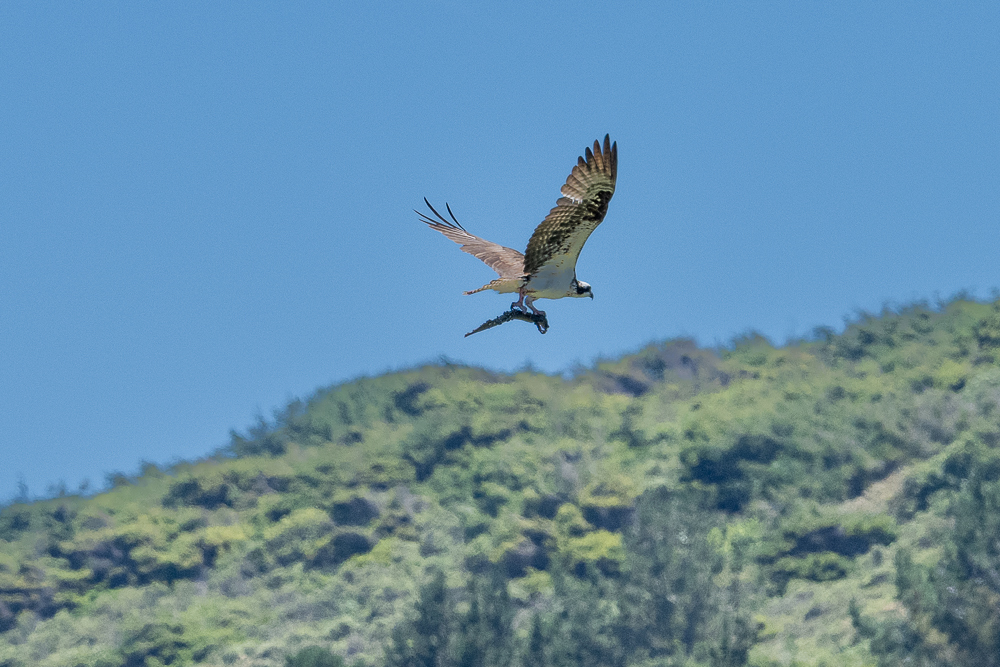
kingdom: Animalia
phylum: Chordata
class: Aves
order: Accipitriformes
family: Pandionidae
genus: Pandion
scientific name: Pandion haliaetus
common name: Osprey
